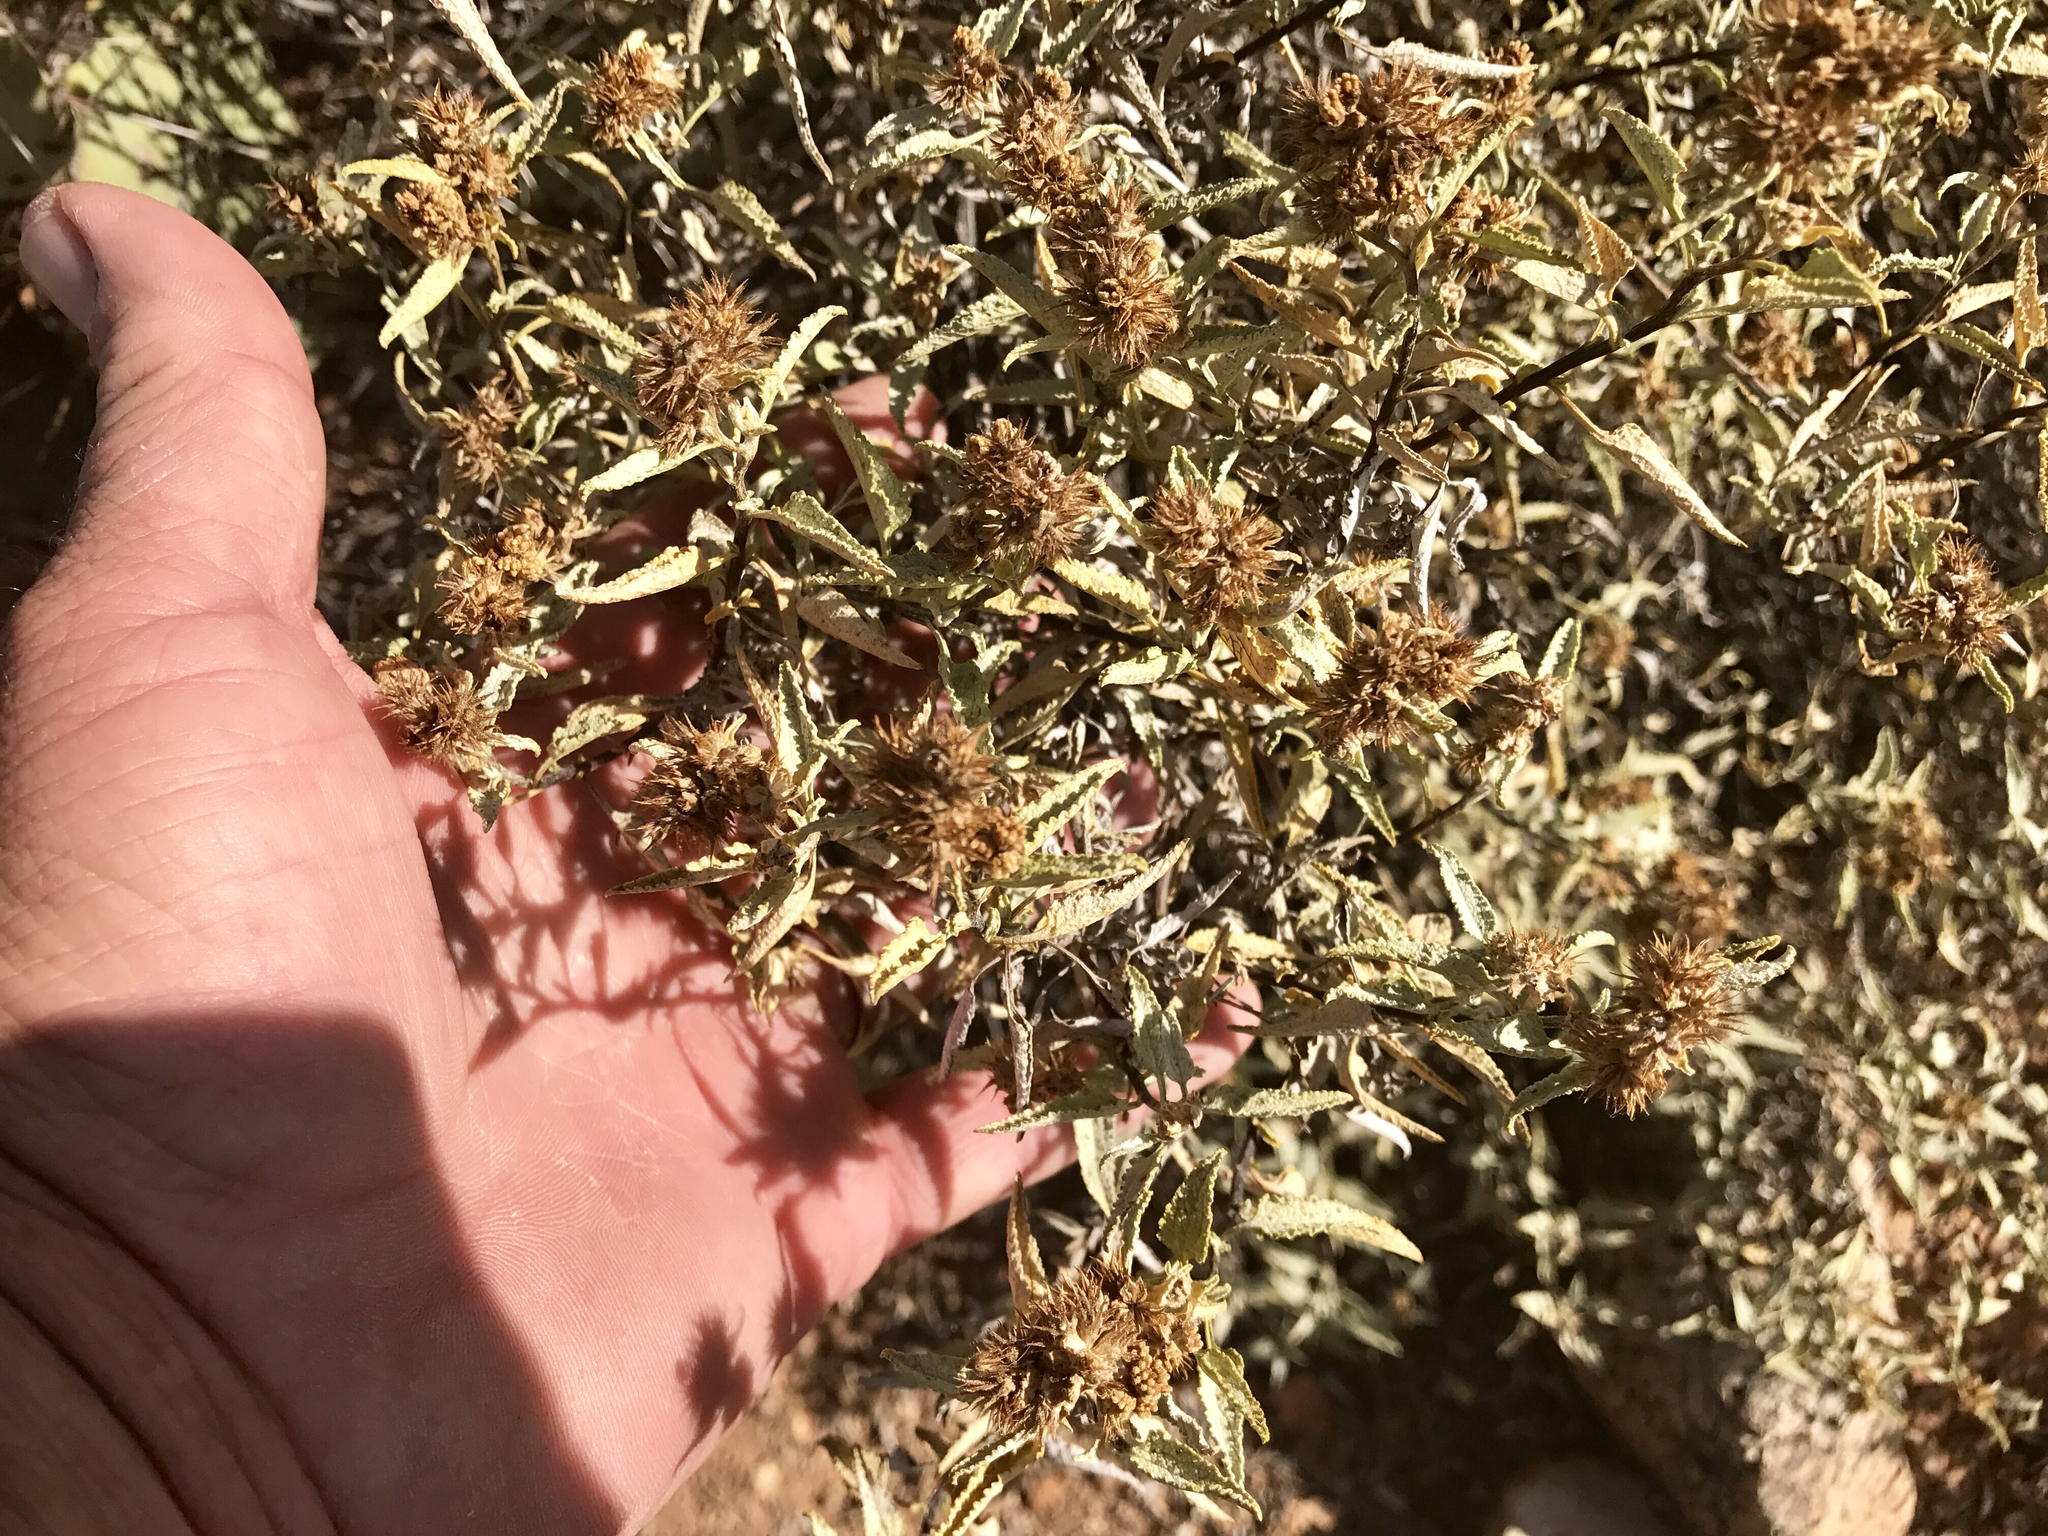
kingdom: Plantae
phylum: Tracheophyta
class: Magnoliopsida
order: Asterales
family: Asteraceae
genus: Ambrosia
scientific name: Ambrosia deltoidea
